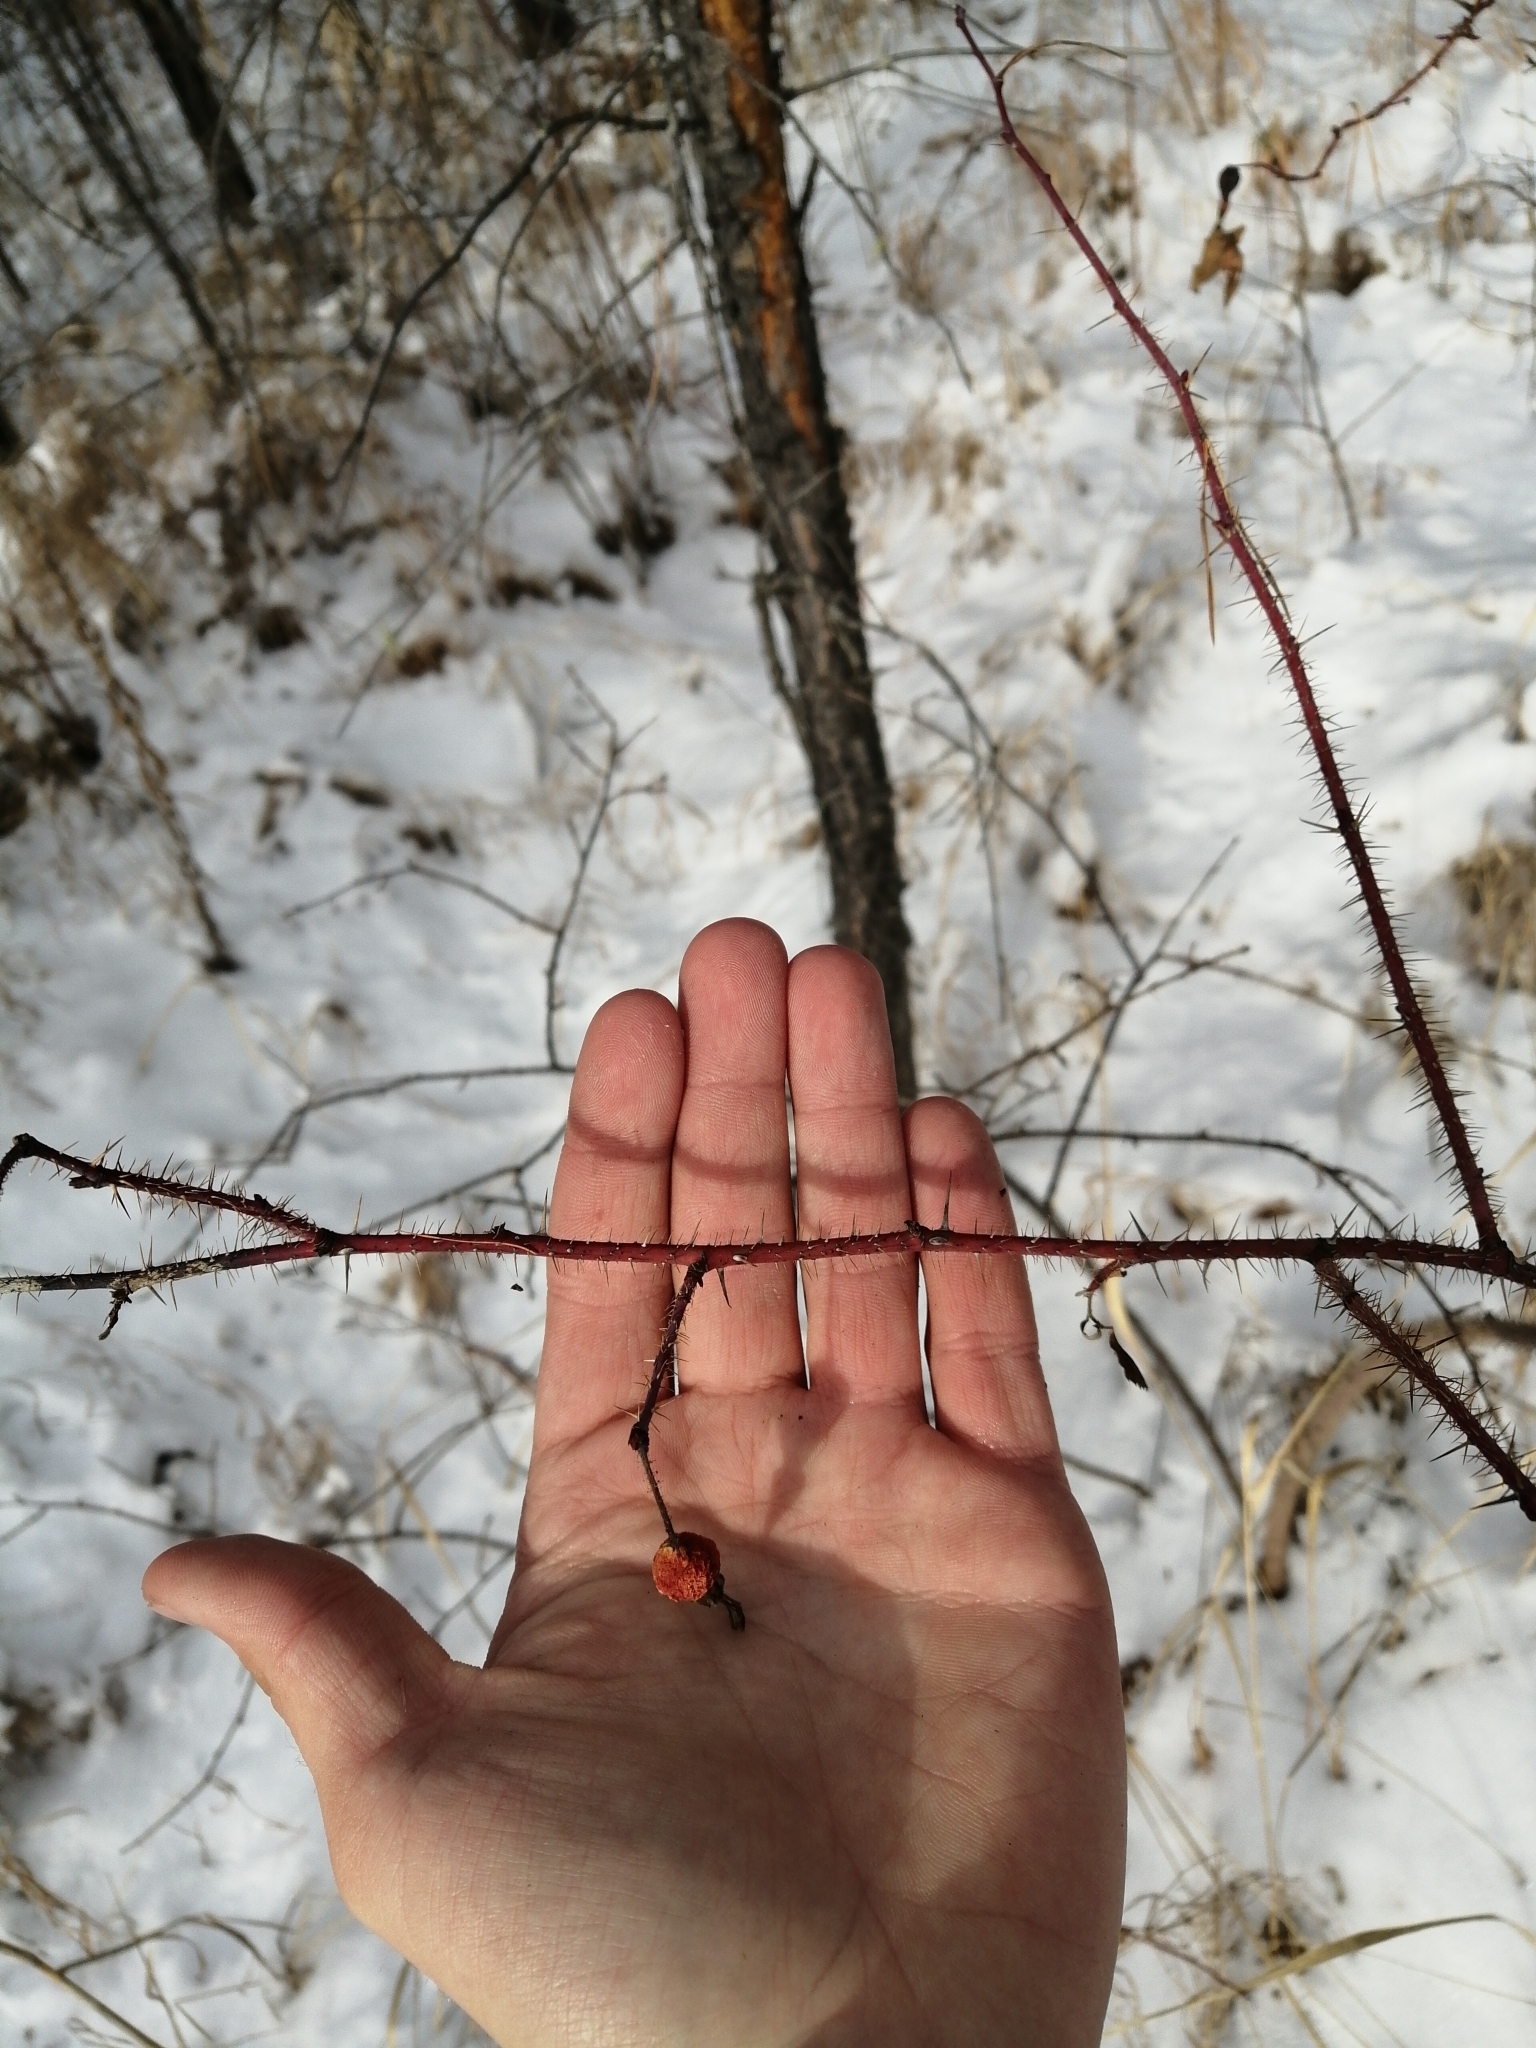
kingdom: Plantae
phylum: Tracheophyta
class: Magnoliopsida
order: Rosales
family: Rosaceae
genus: Rosa
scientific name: Rosa acicularis
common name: Prickly rose
